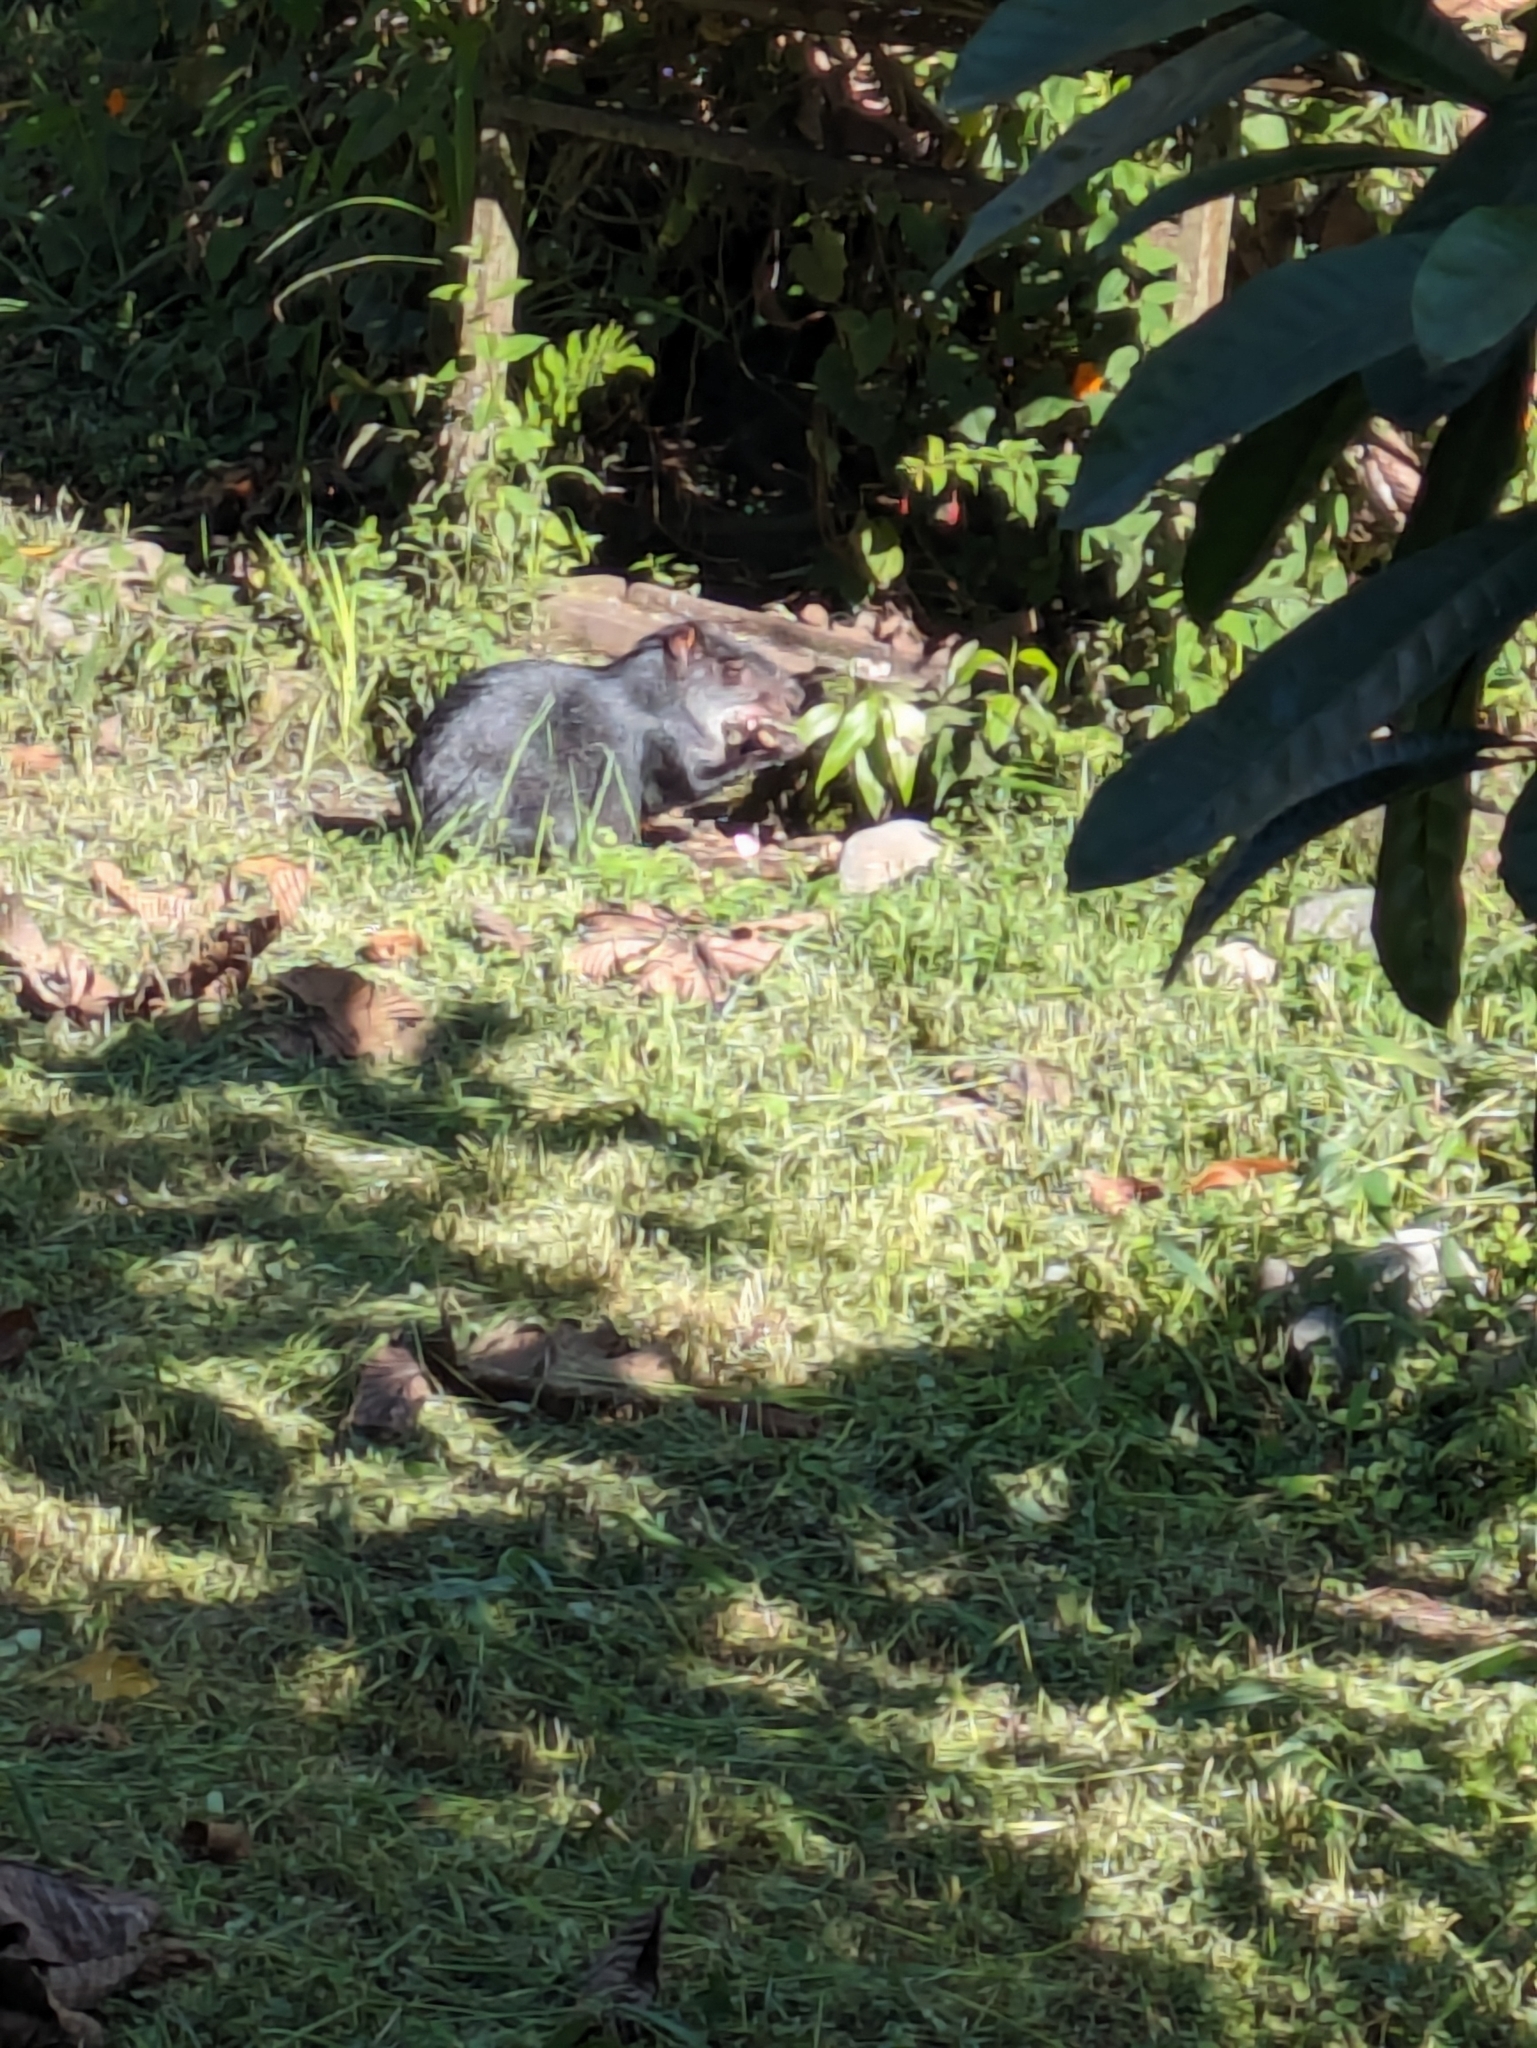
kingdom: Animalia
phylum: Chordata
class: Mammalia
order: Rodentia
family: Dasyproctidae
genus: Dasyprocta
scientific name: Dasyprocta fuliginosa
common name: Black agouti
